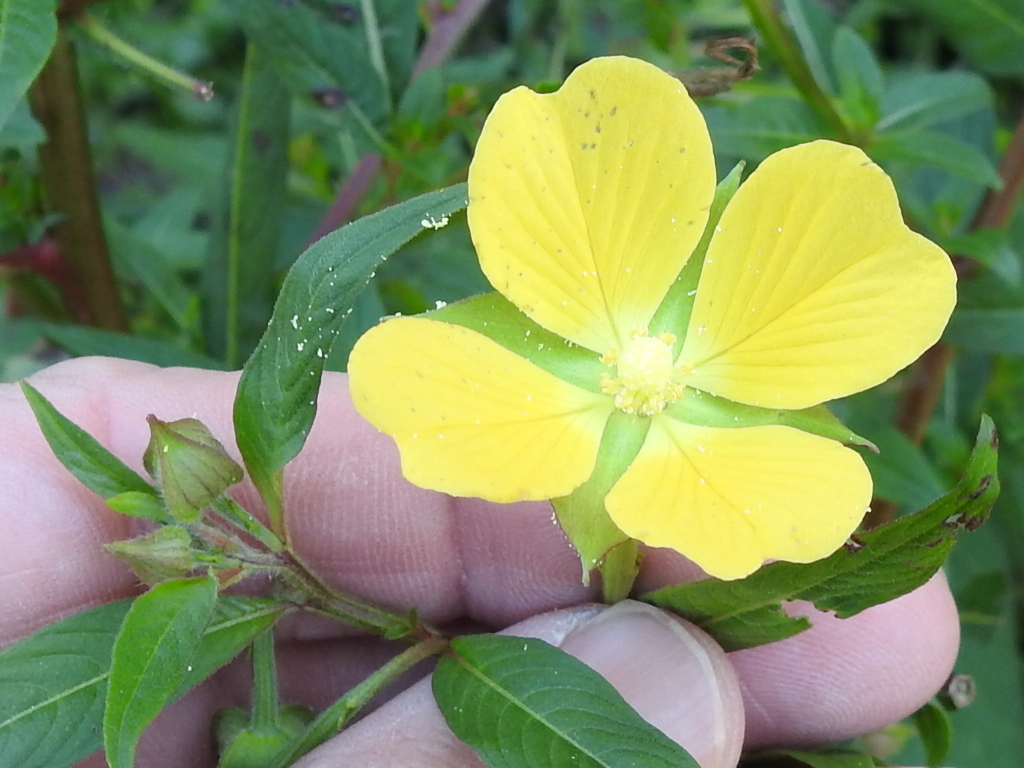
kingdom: Plantae
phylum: Tracheophyta
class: Magnoliopsida
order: Myrtales
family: Onagraceae
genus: Ludwigia
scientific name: Ludwigia octovalvis
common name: Water-primrose
